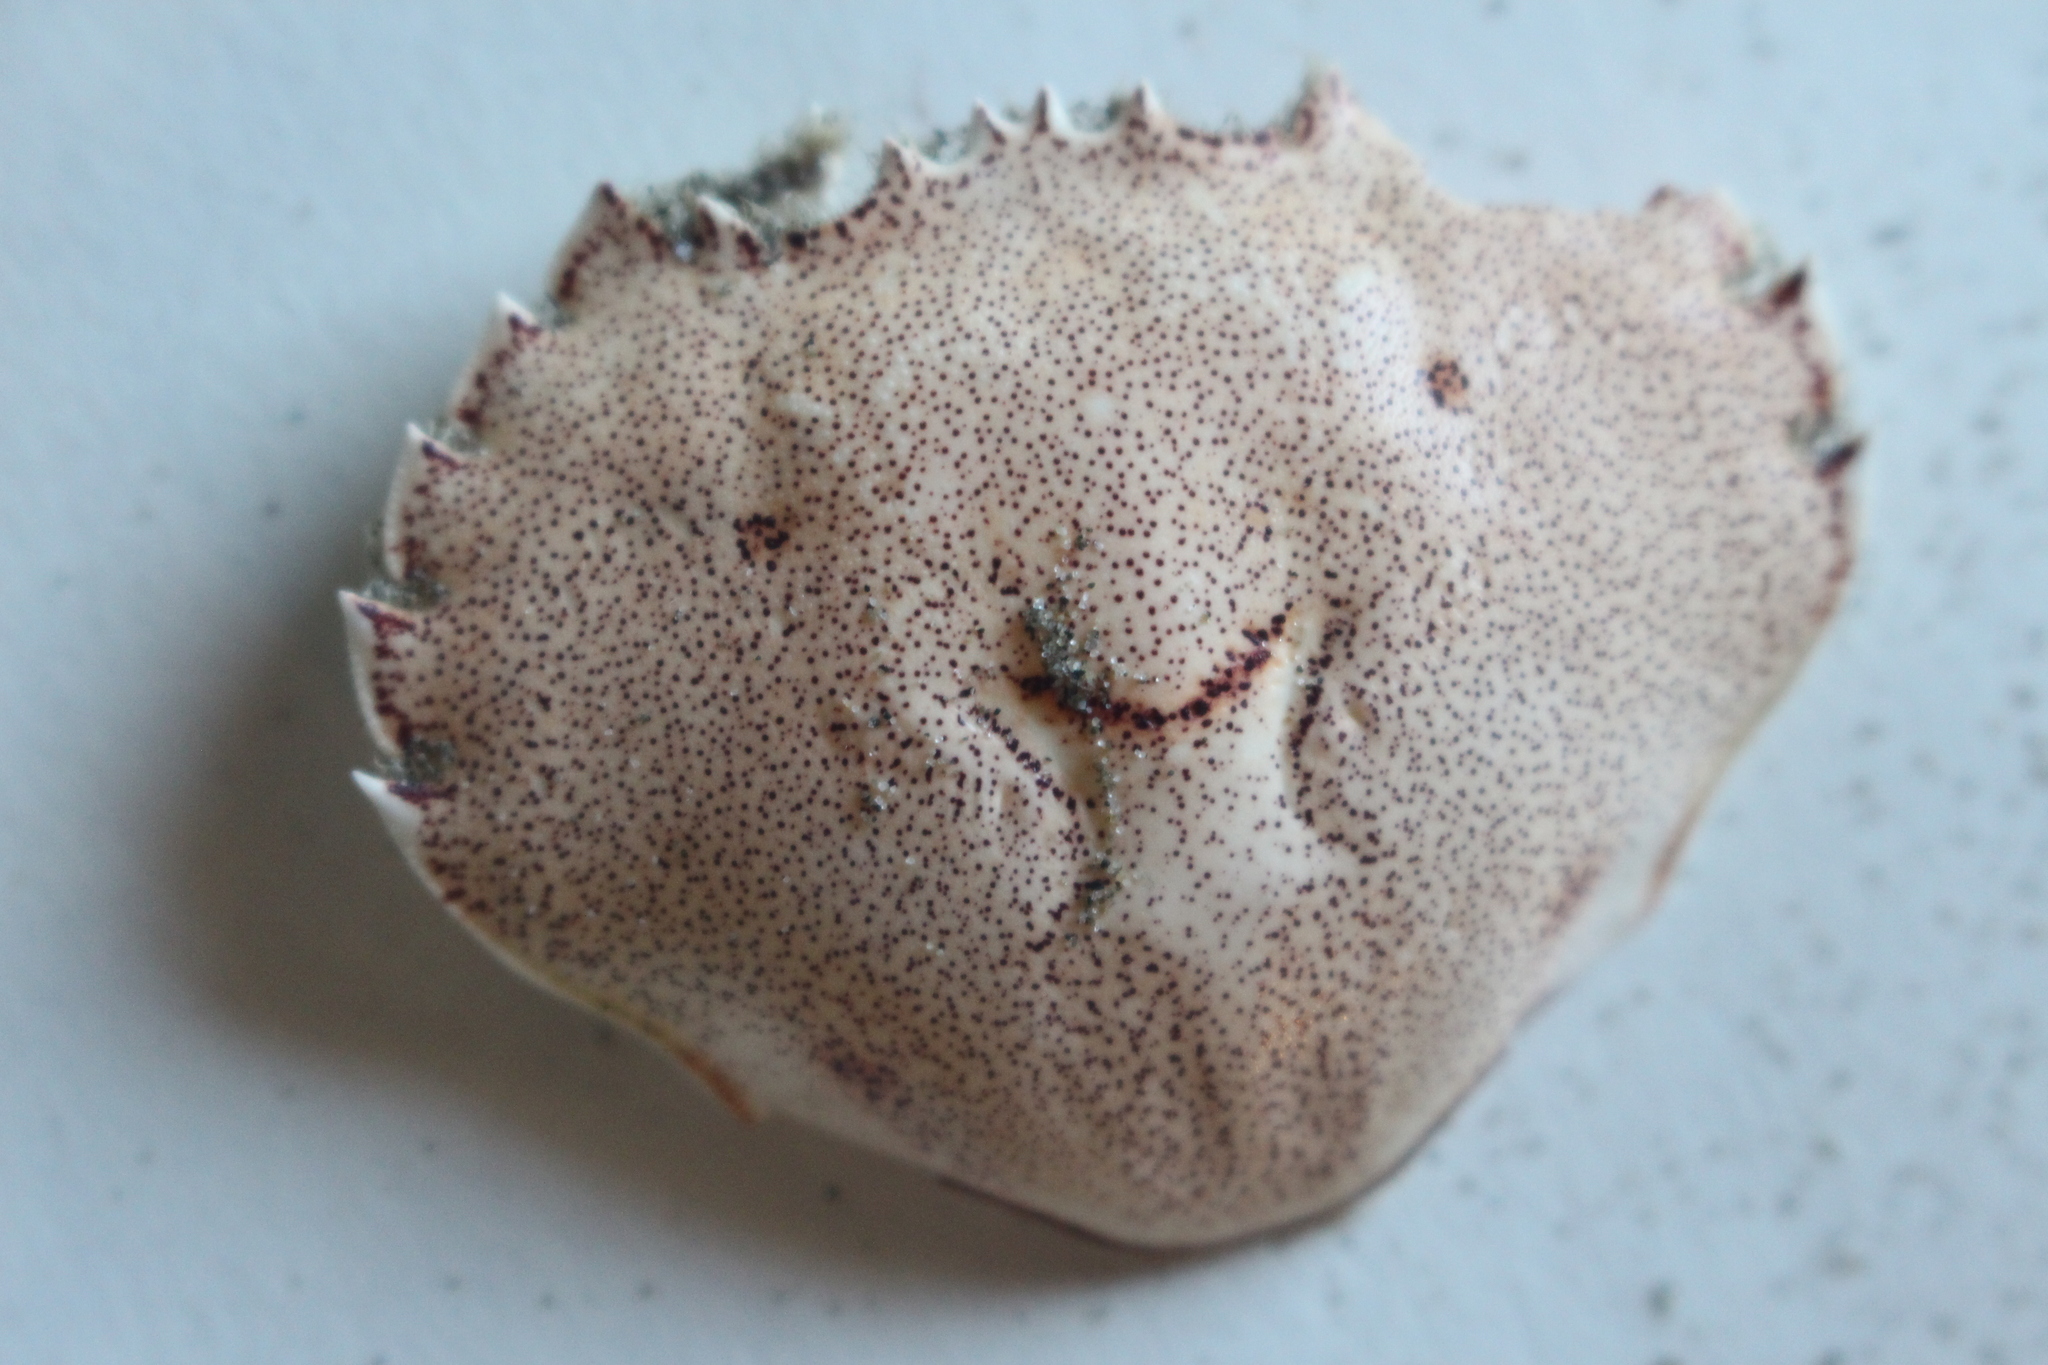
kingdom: Animalia
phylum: Arthropoda
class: Malacostraca
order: Decapoda
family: Ovalipidae
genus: Ovalipes
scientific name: Ovalipes catharus
